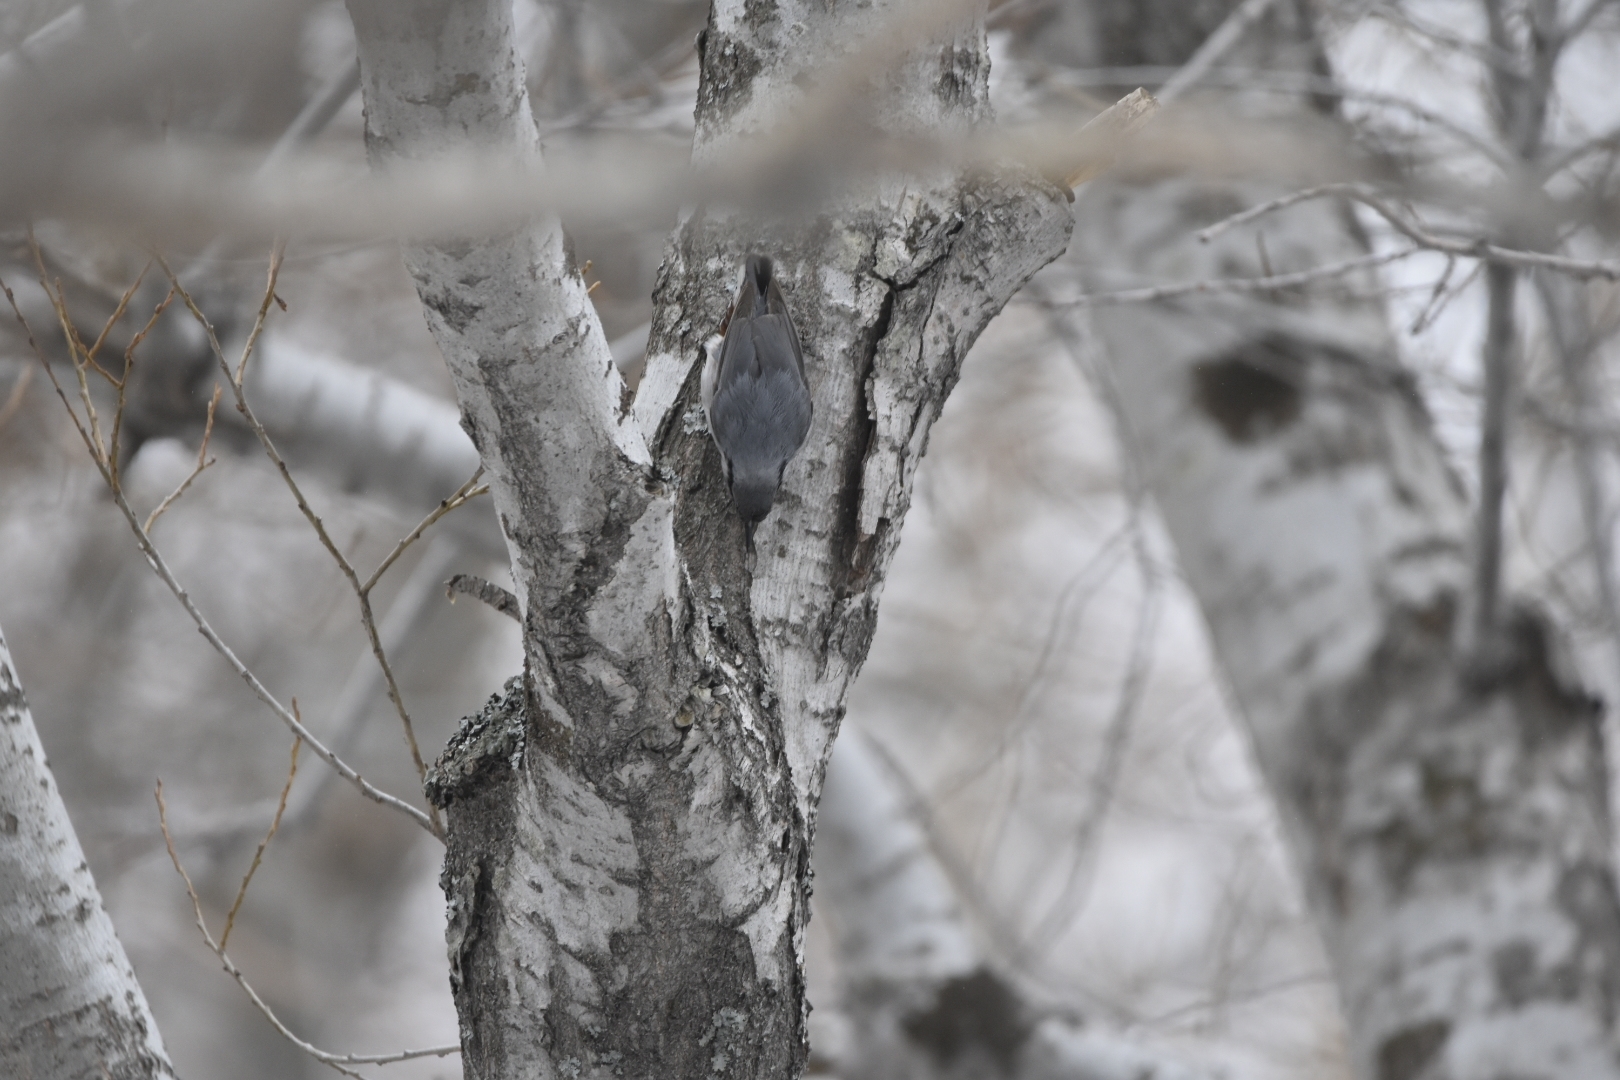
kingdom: Animalia
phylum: Chordata
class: Aves
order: Passeriformes
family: Sittidae
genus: Sitta
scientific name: Sitta europaea
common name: Eurasian nuthatch
